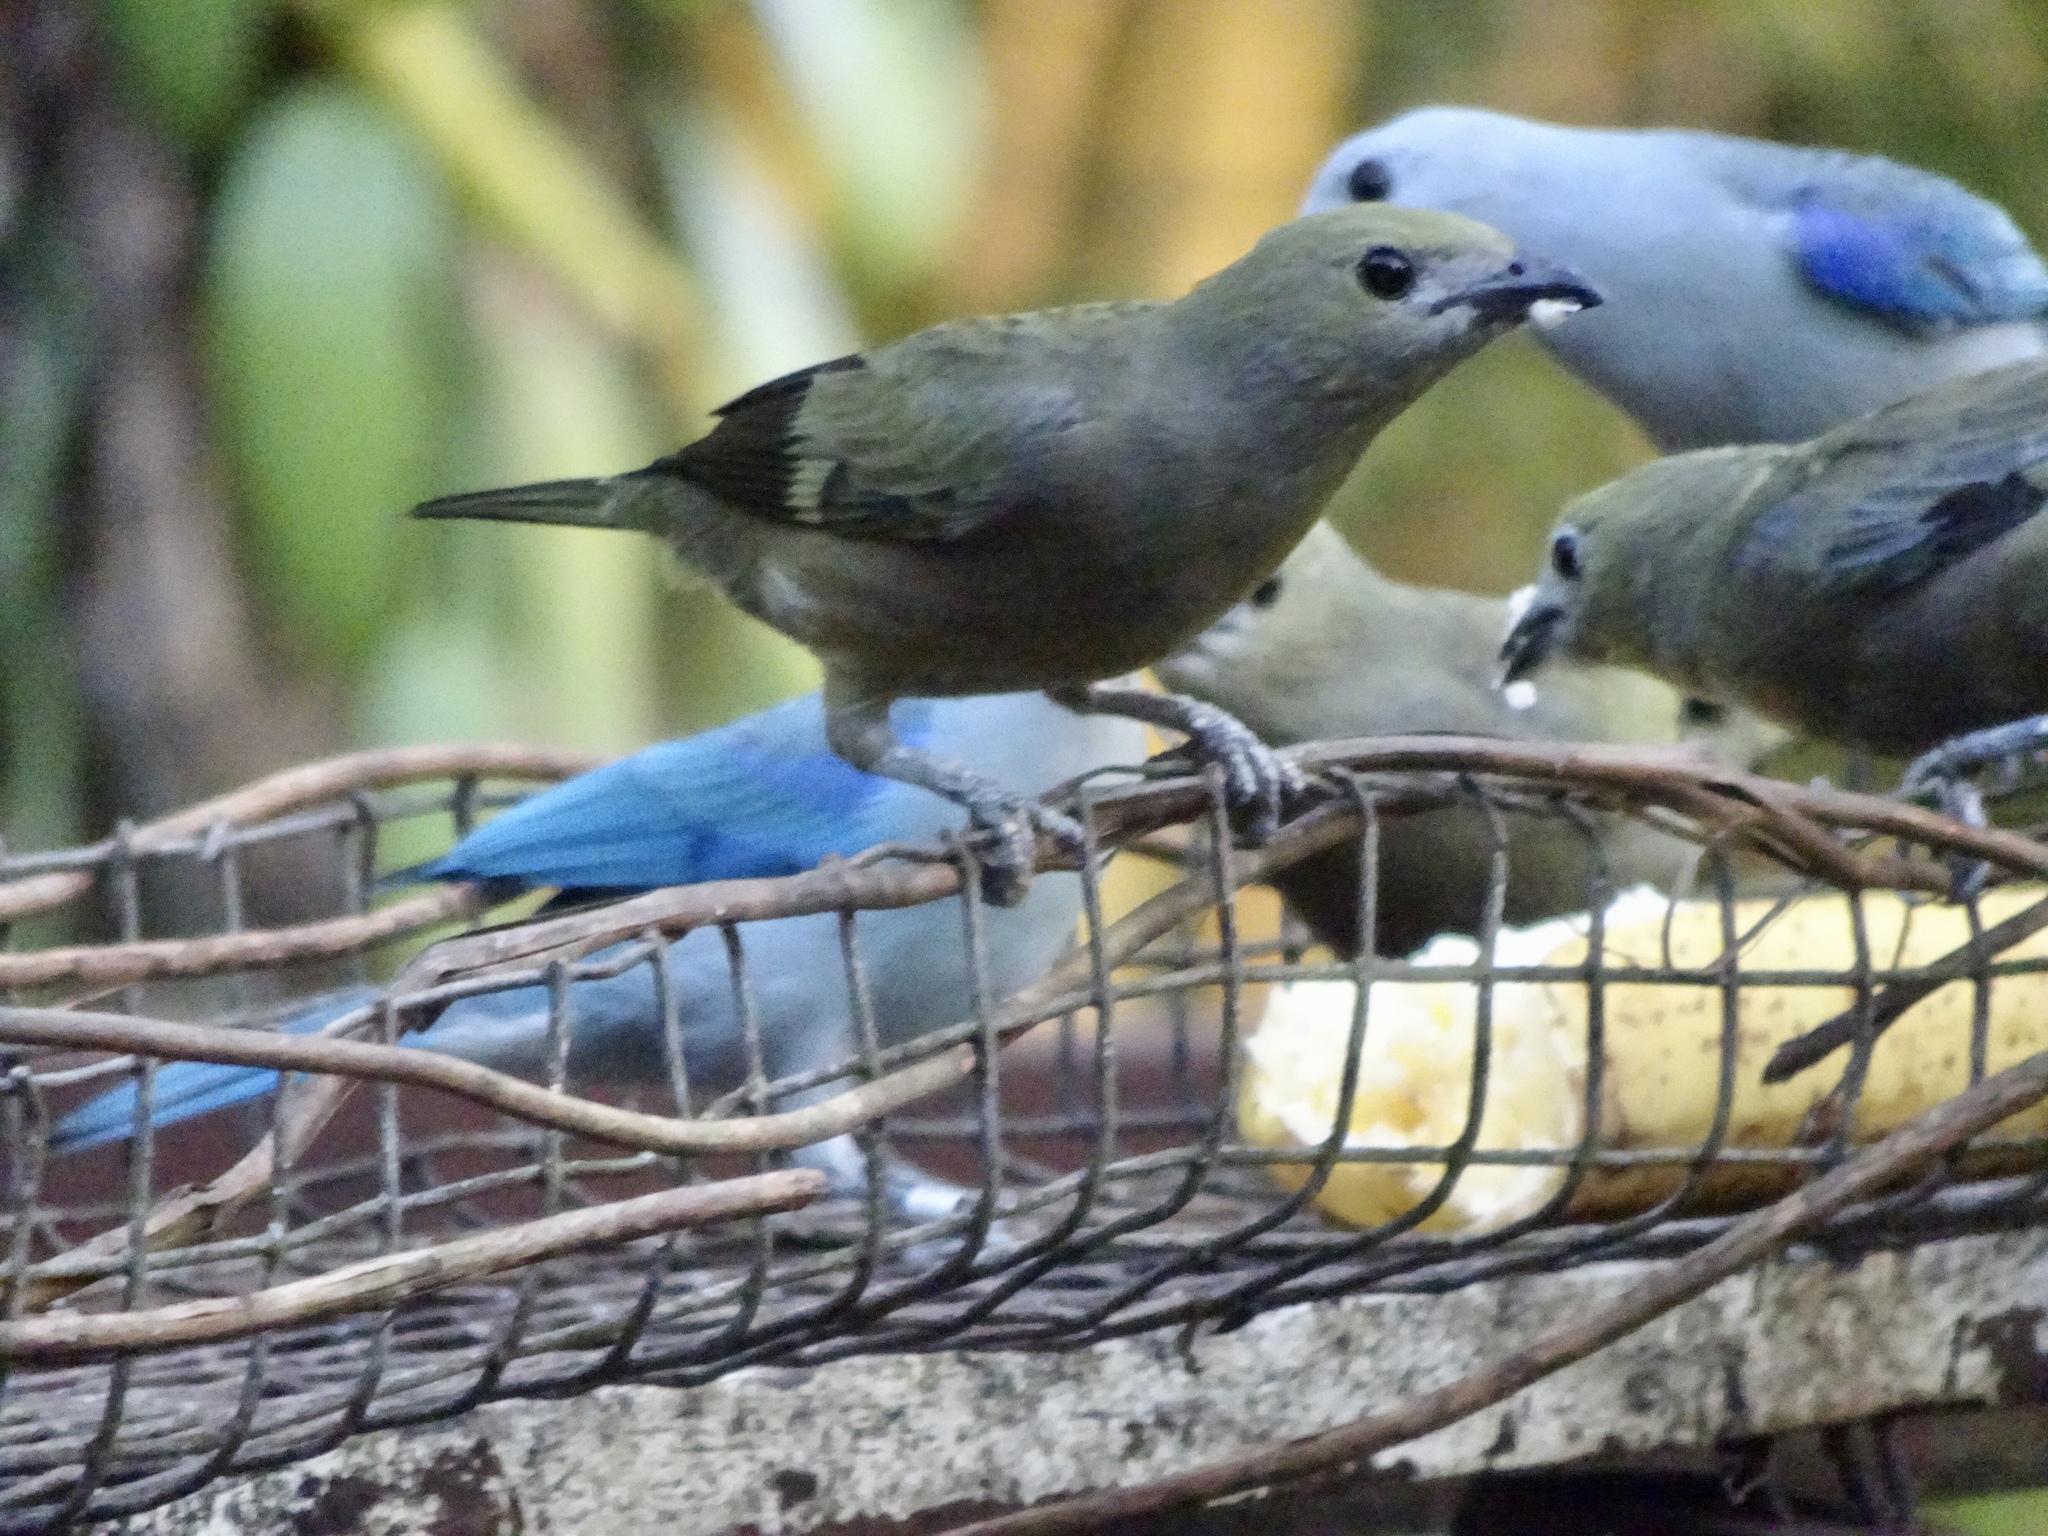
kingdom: Animalia
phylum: Chordata
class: Aves
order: Passeriformes
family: Thraupidae
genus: Thraupis
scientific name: Thraupis palmarum
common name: Palm tanager
